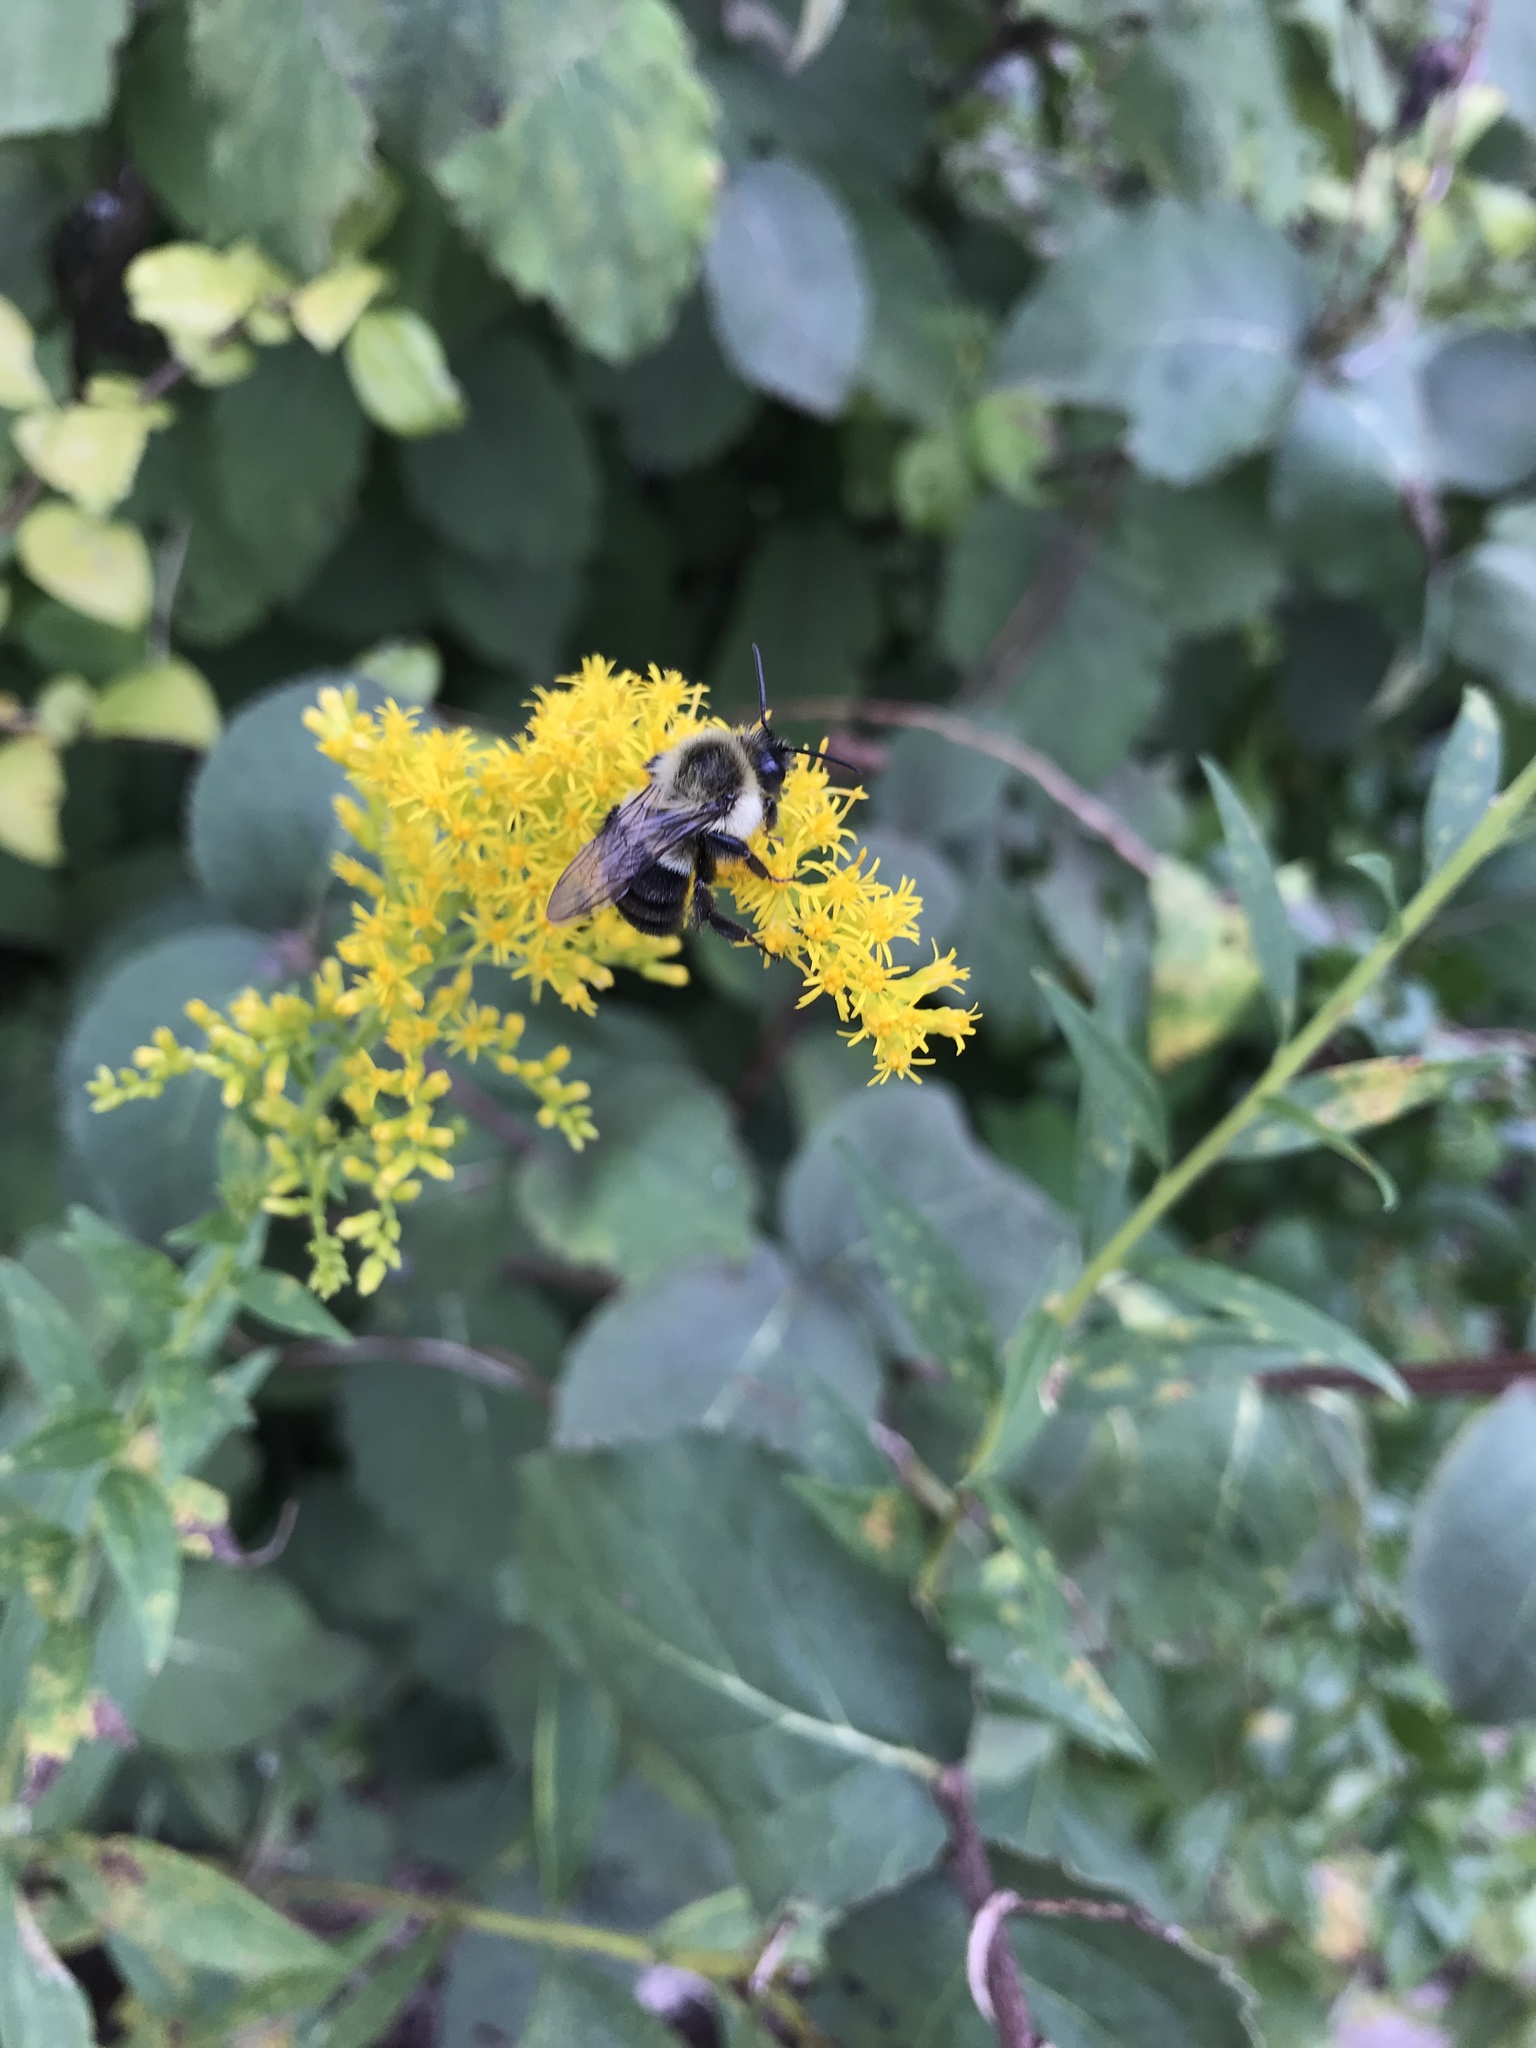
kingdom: Animalia
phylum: Arthropoda
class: Insecta
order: Hymenoptera
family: Apidae
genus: Bombus
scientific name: Bombus impatiens
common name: Common eastern bumble bee
